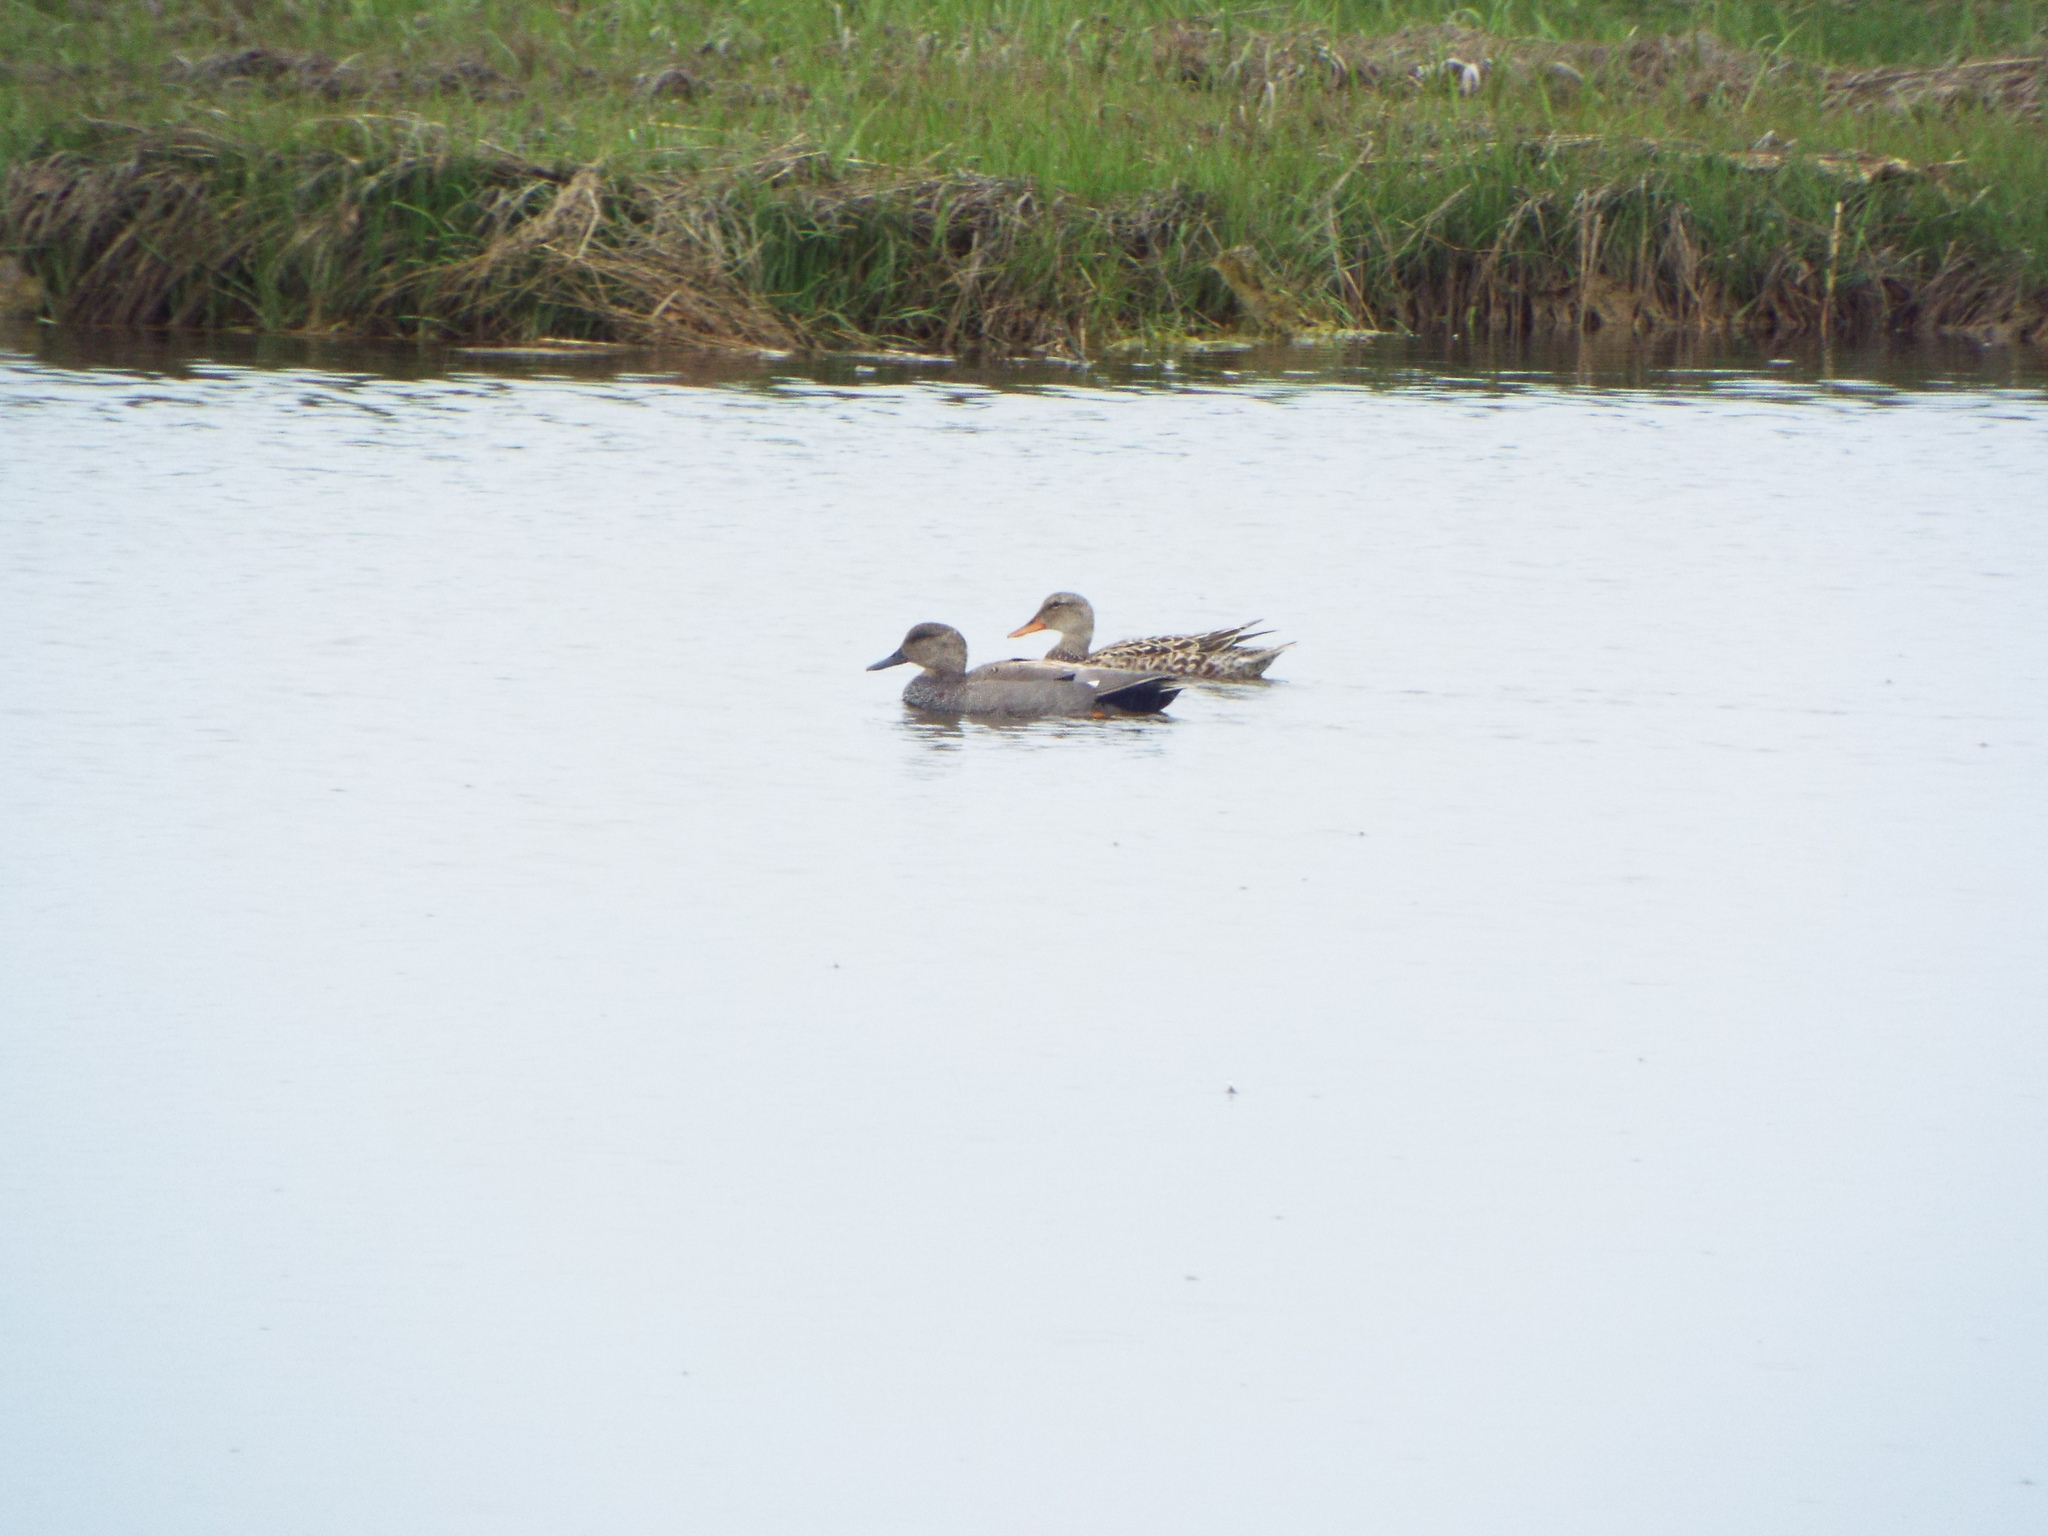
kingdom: Animalia
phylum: Chordata
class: Aves
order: Anseriformes
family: Anatidae
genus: Mareca
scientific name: Mareca strepera
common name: Gadwall
